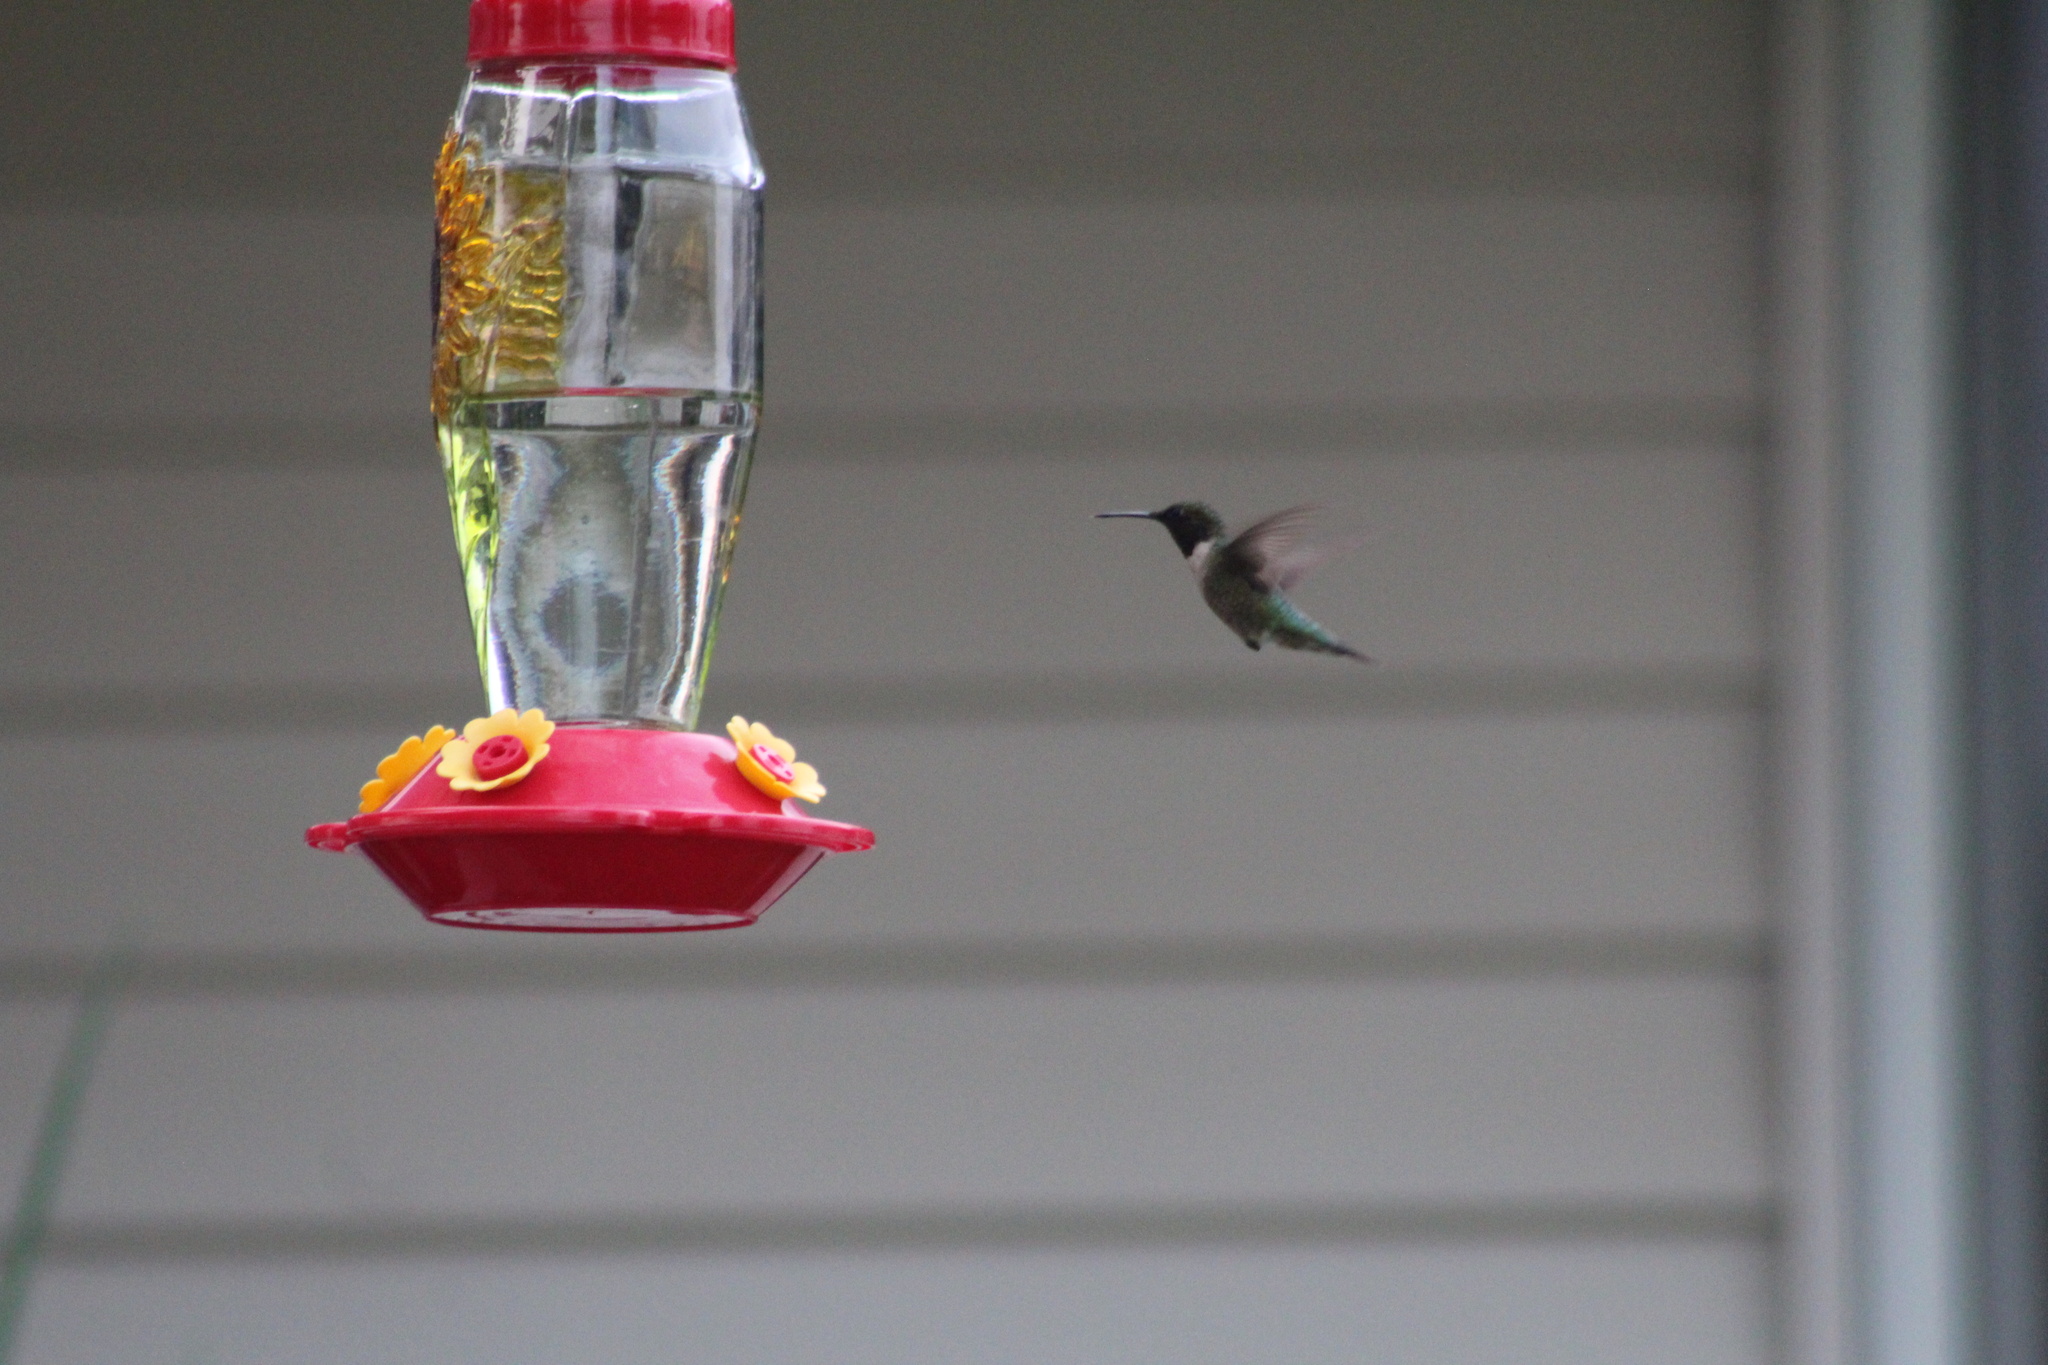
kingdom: Animalia
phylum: Chordata
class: Aves
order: Apodiformes
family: Trochilidae
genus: Archilochus
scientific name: Archilochus colubris
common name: Ruby-throated hummingbird
